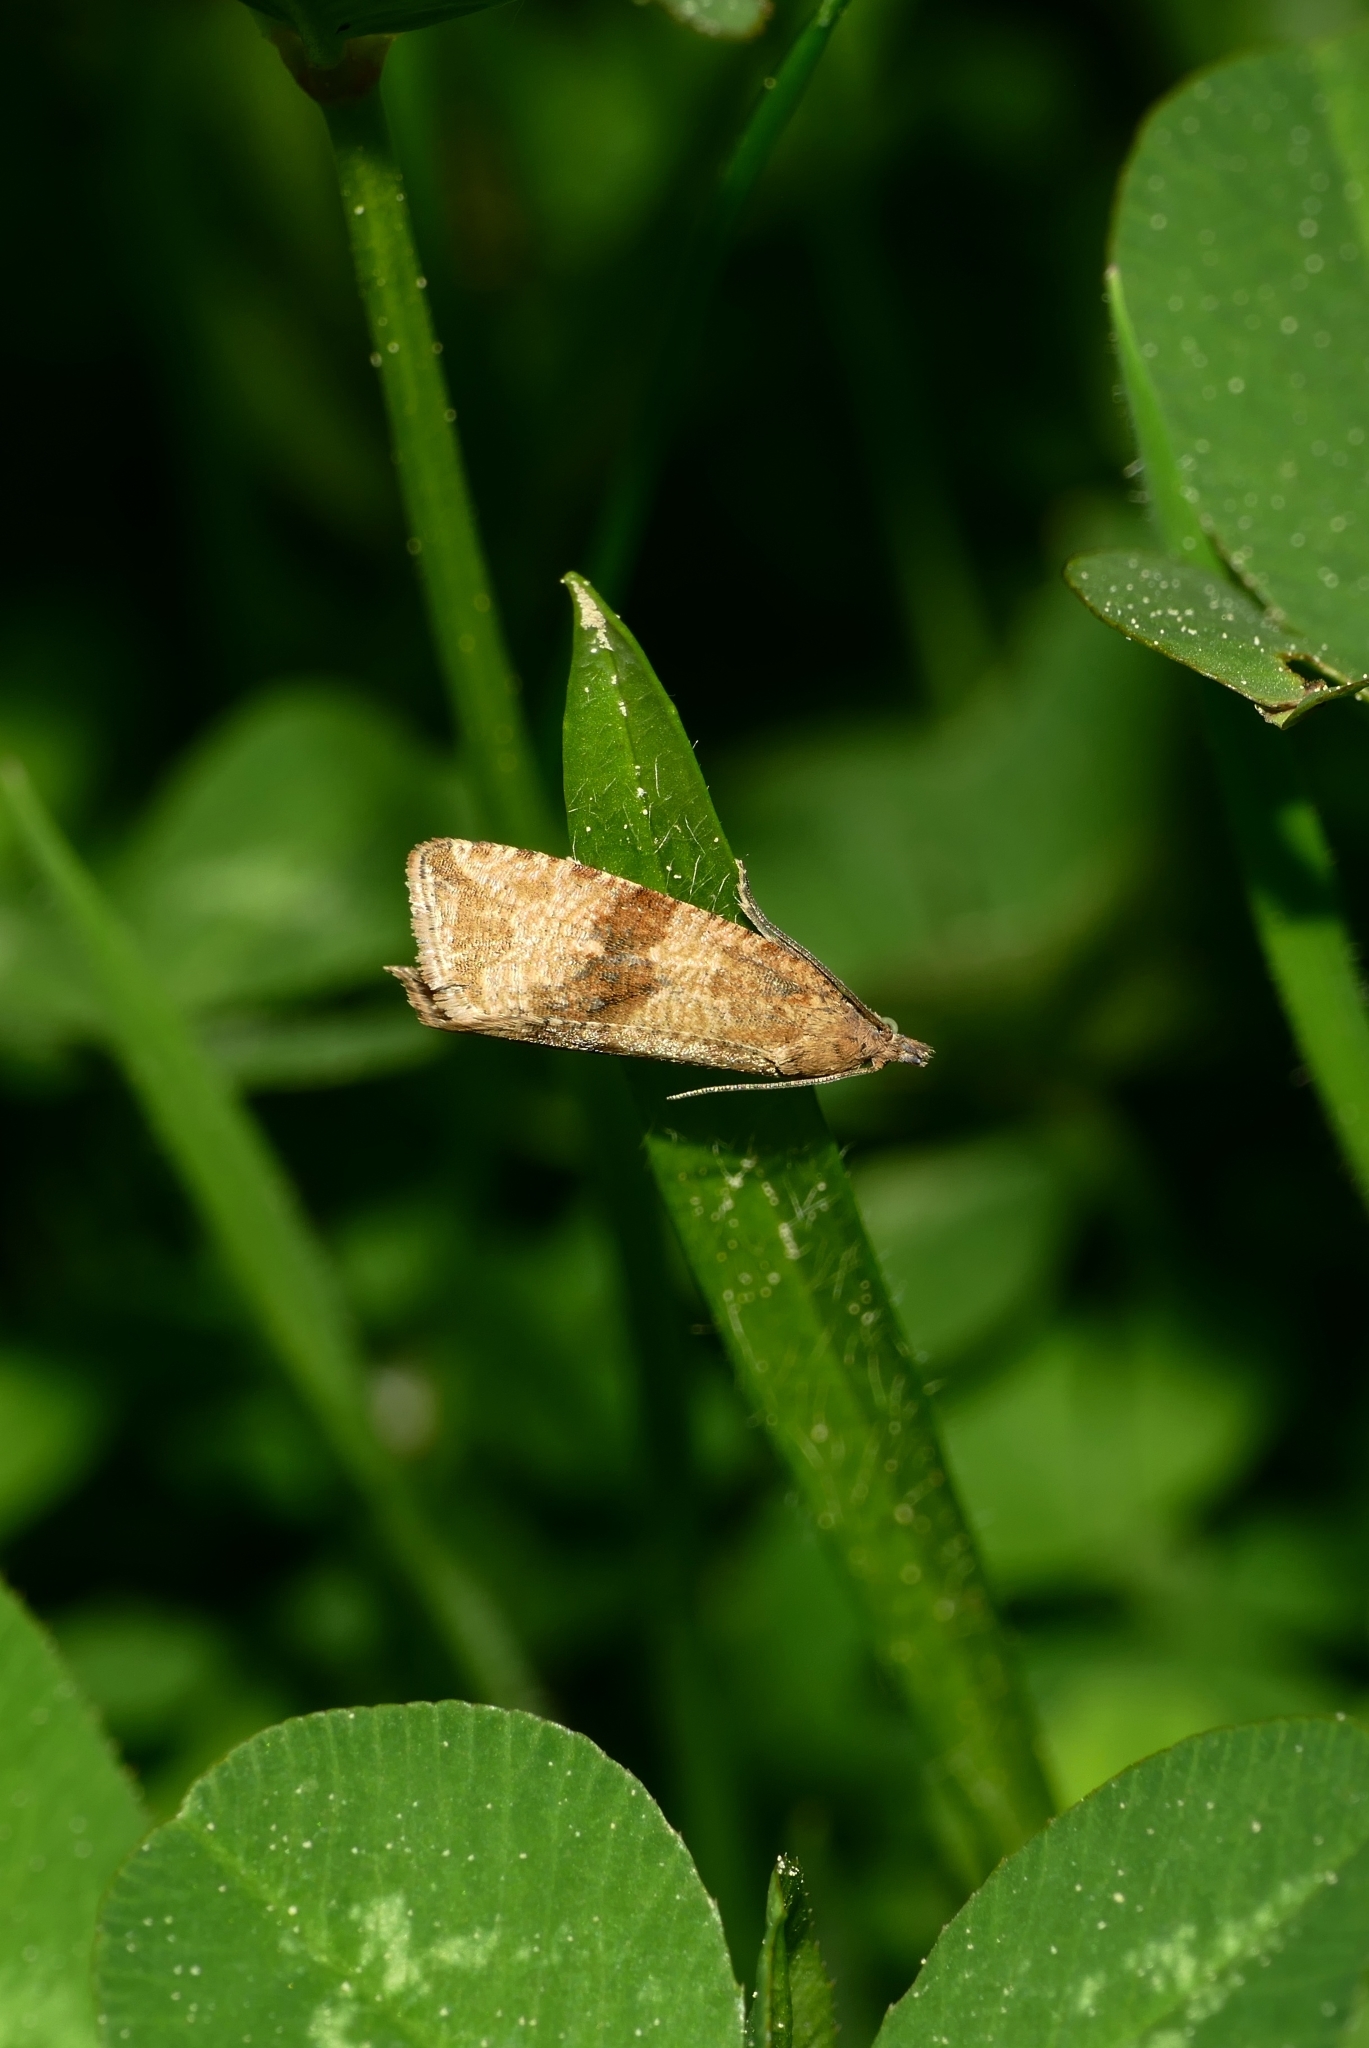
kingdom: Animalia
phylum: Arthropoda
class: Insecta
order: Lepidoptera
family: Tortricidae
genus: Celypha
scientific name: Celypha striana
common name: Barred marble
